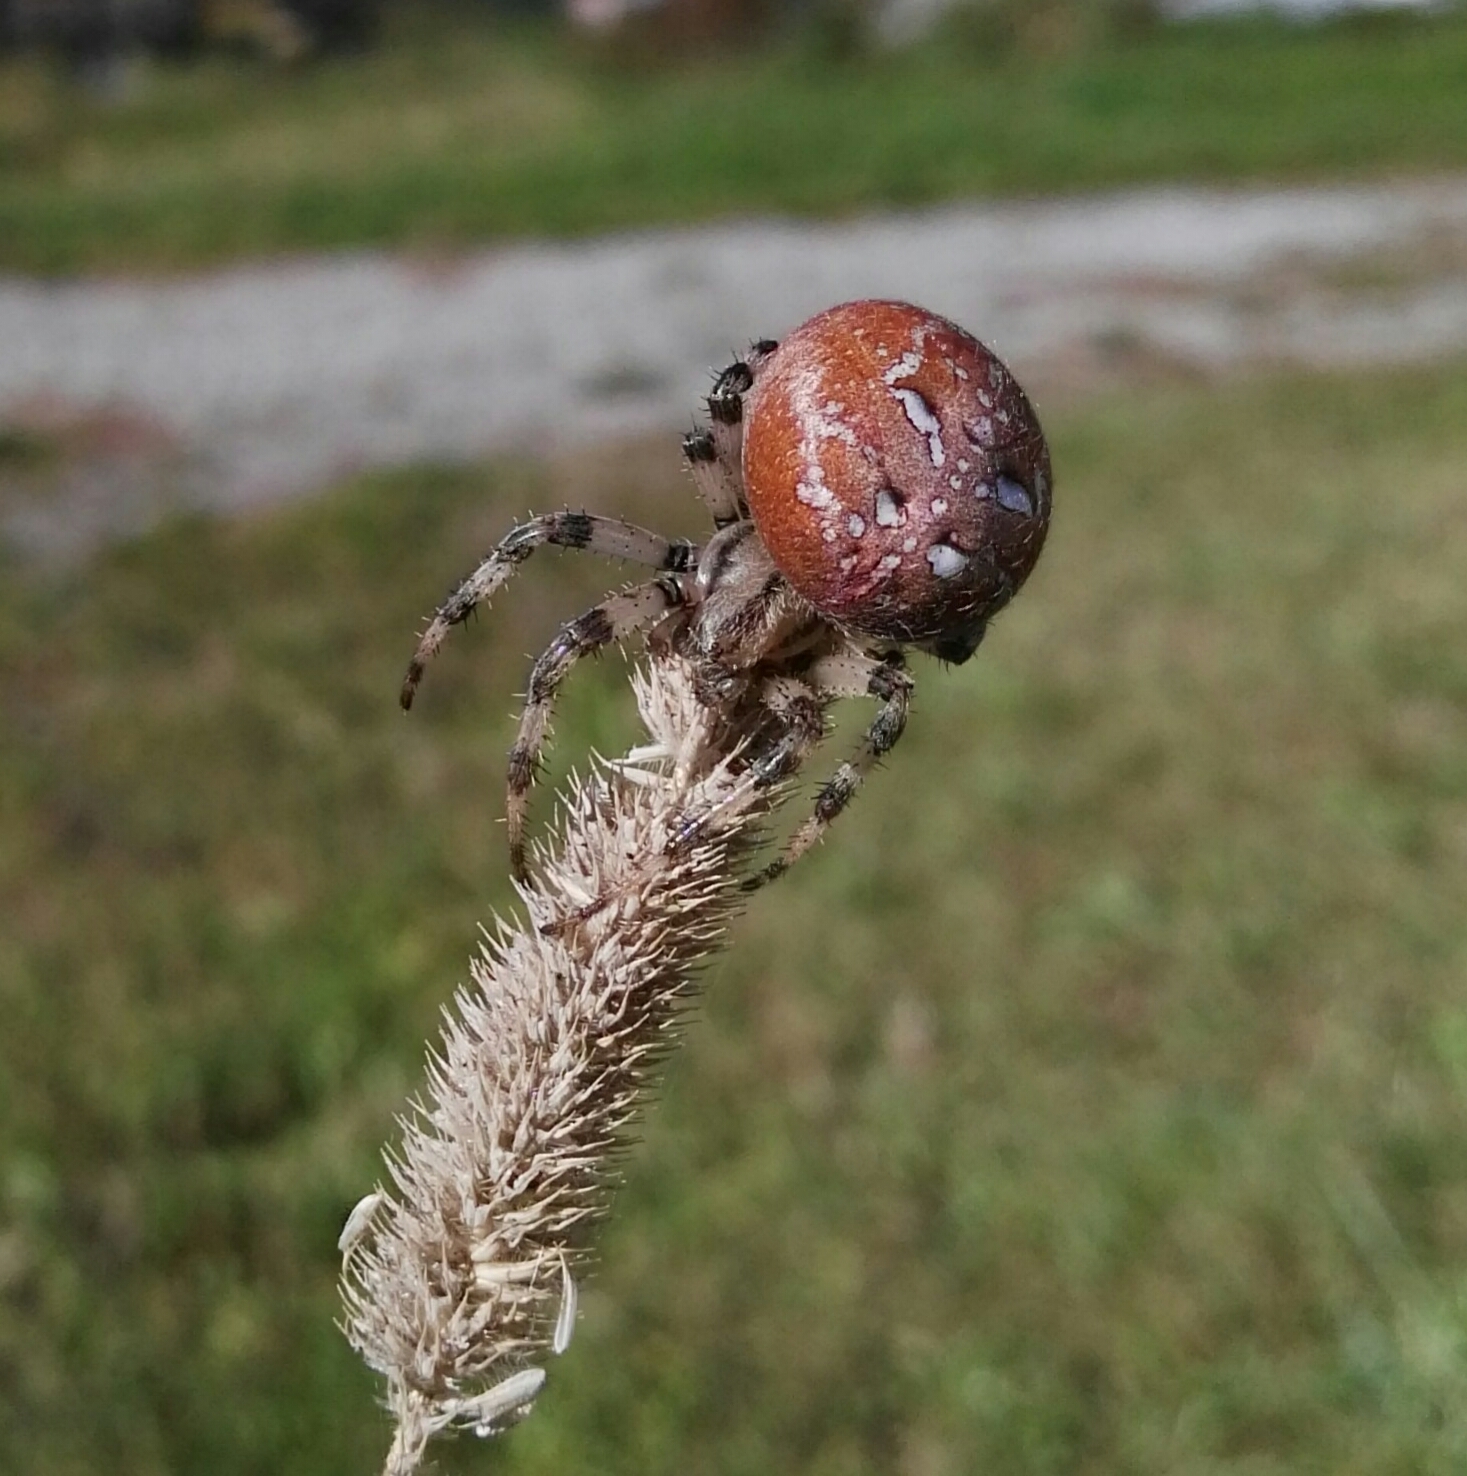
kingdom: Animalia
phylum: Arthropoda
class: Arachnida
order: Araneae
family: Araneidae
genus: Araneus
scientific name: Araneus quadratus
